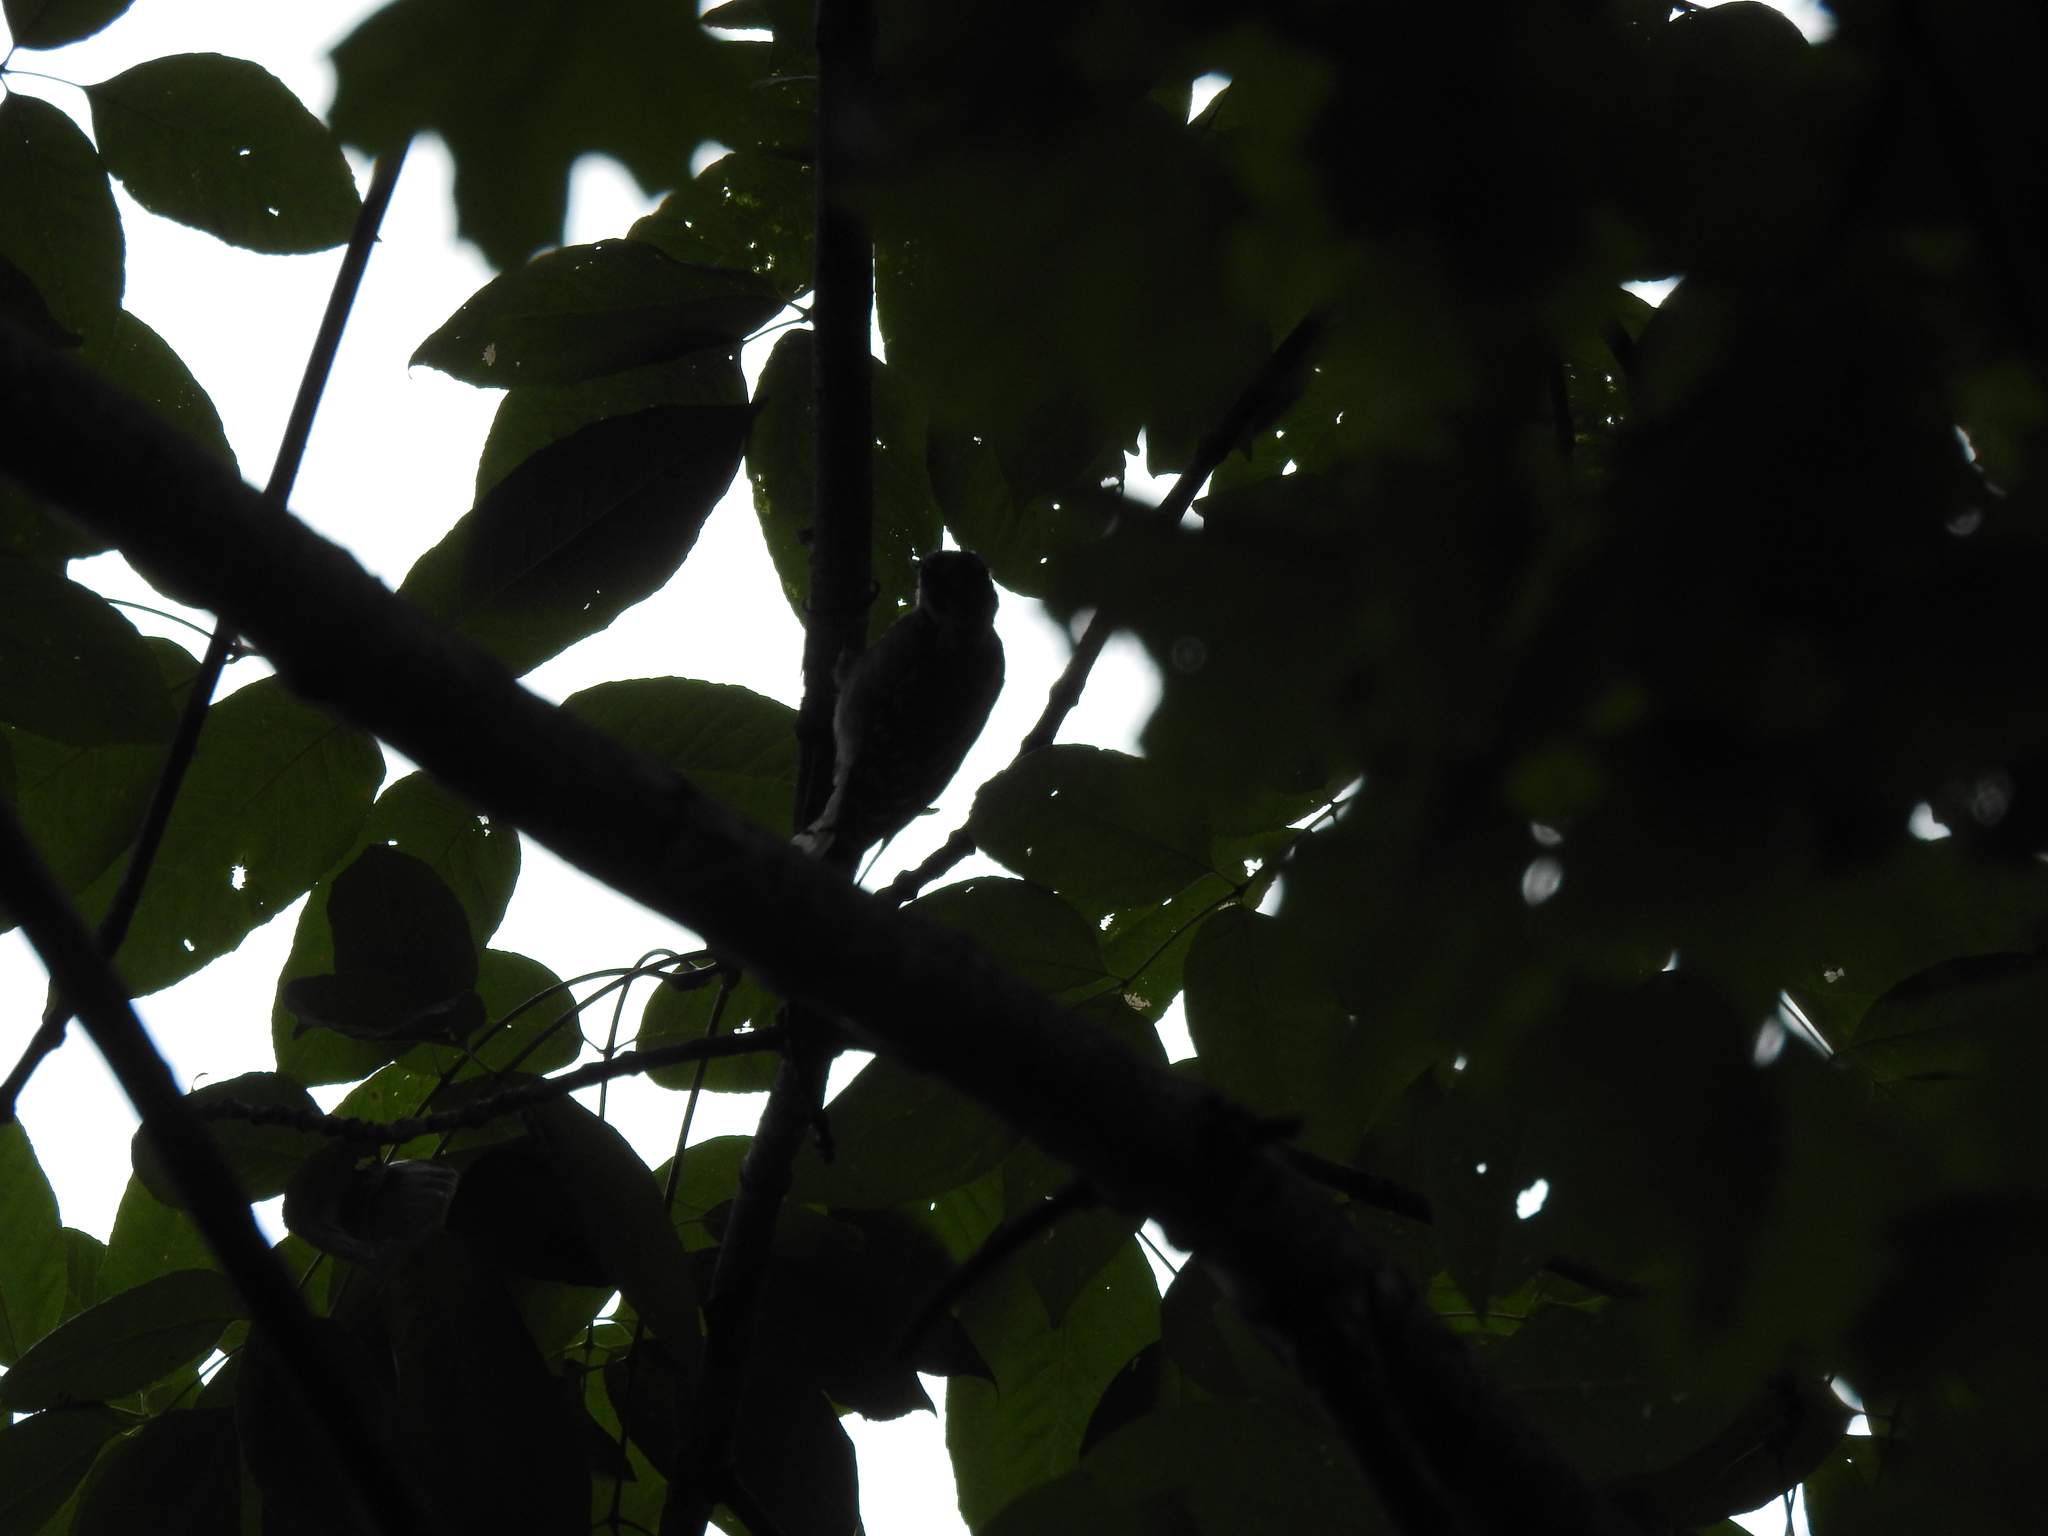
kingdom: Animalia
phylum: Chordata
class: Aves
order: Piciformes
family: Picidae
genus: Dryobates
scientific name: Dryobates pubescens
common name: Downy woodpecker
